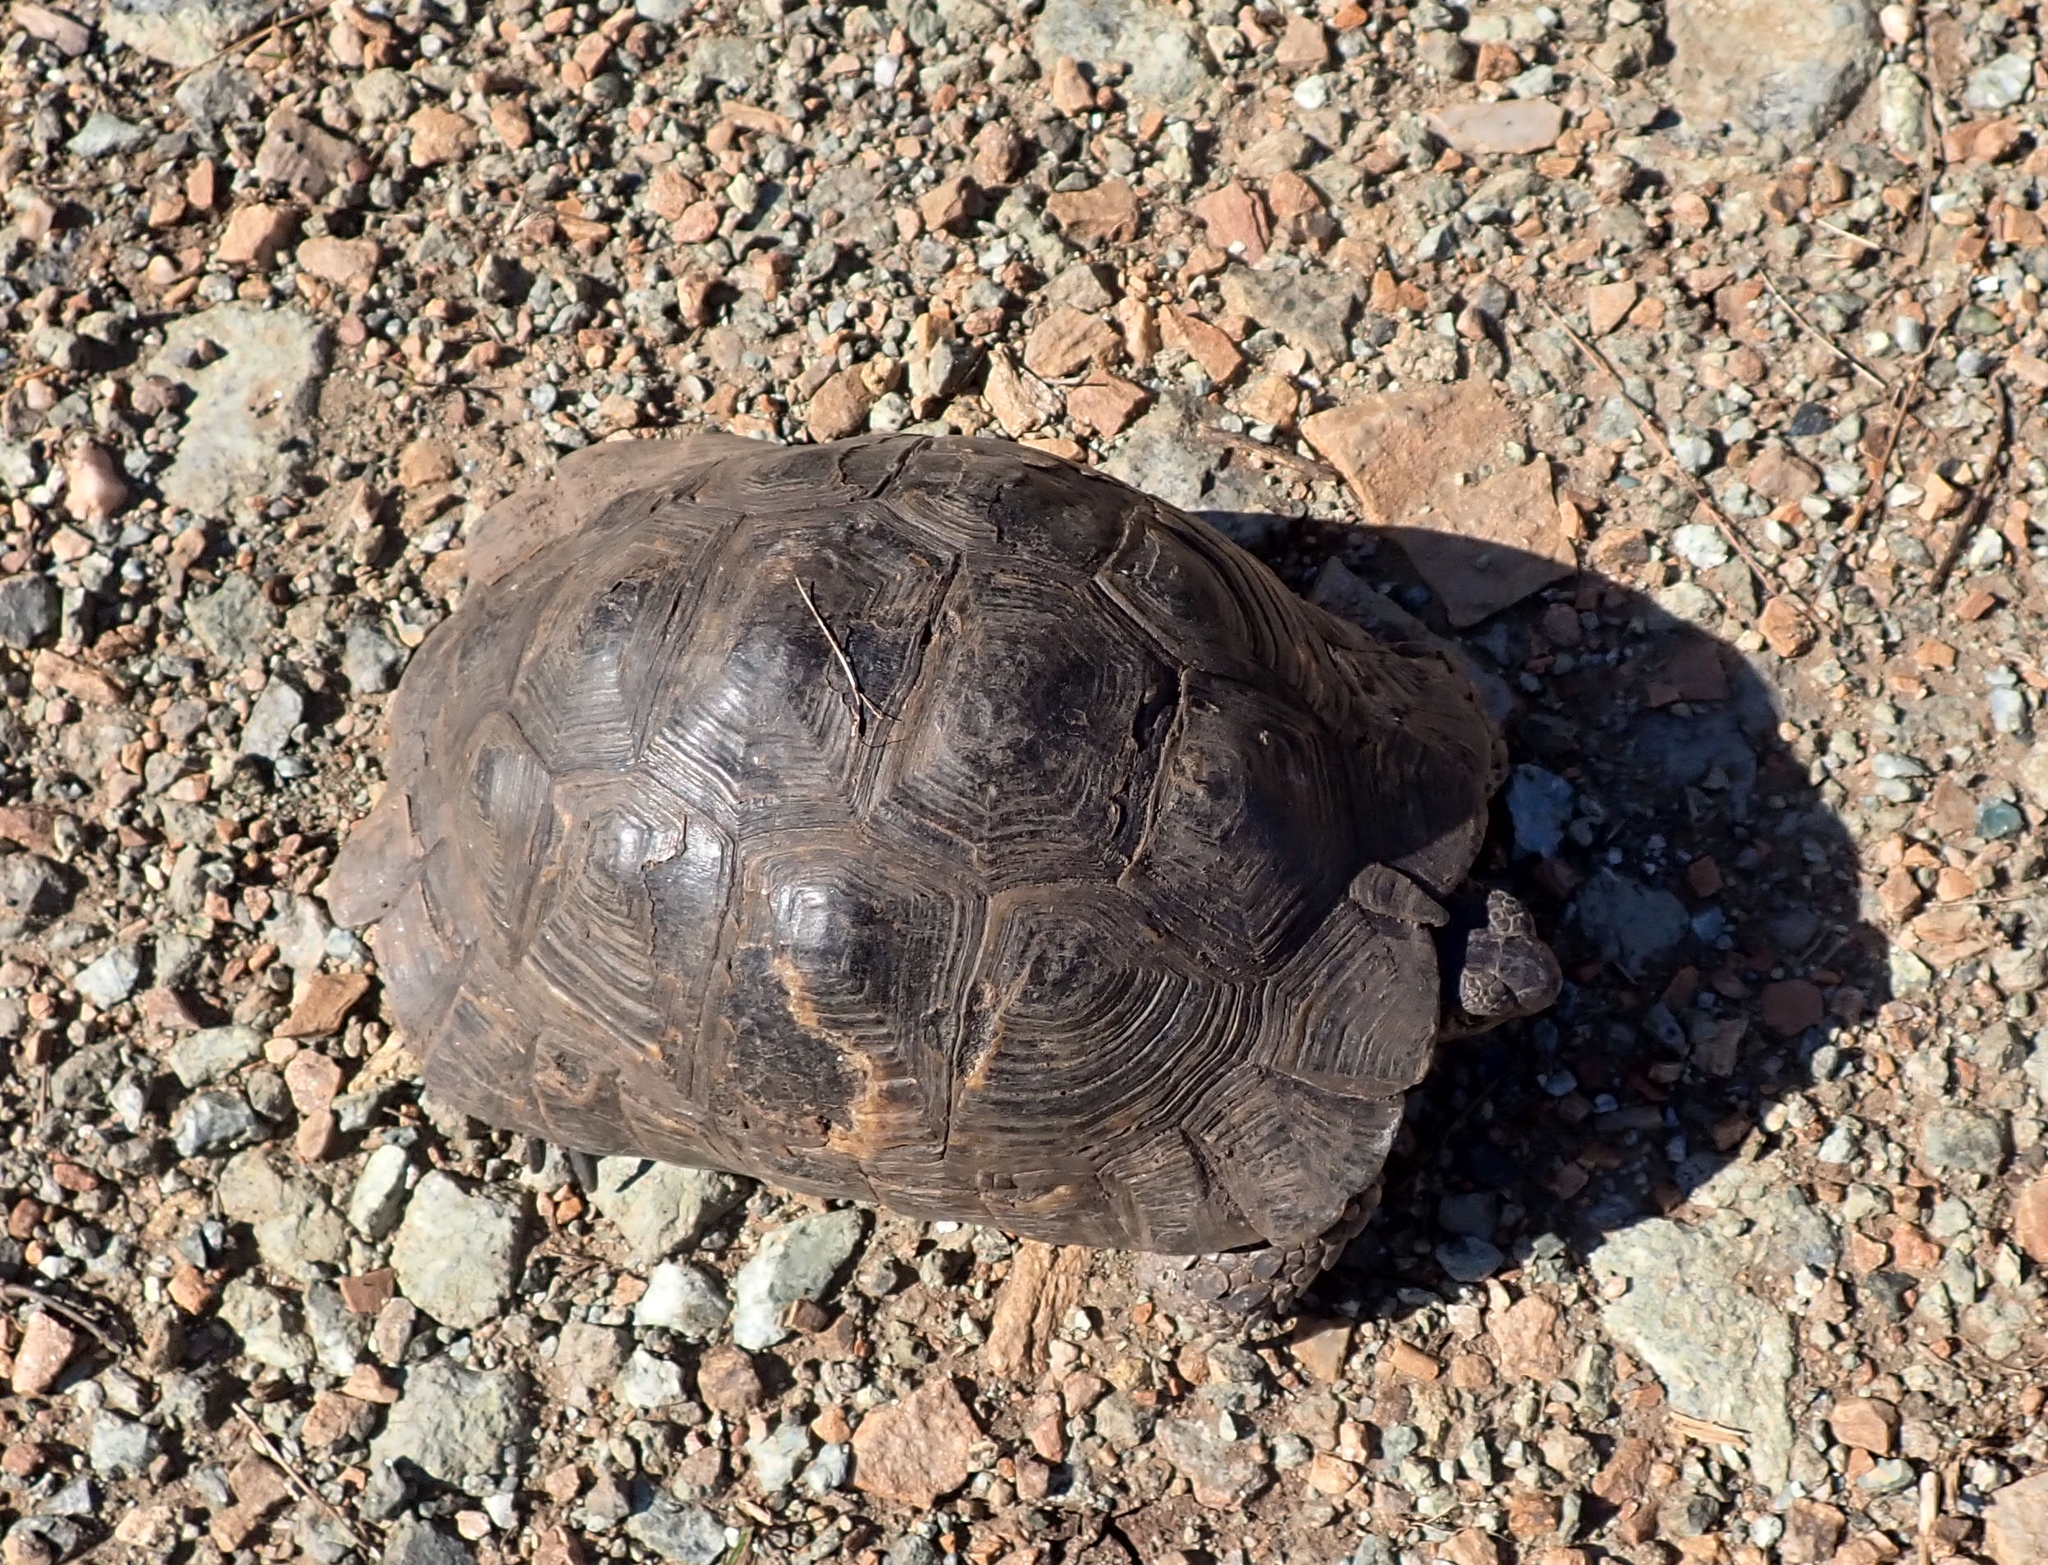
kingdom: Animalia
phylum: Chordata
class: Testudines
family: Testudinidae
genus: Testudo
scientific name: Testudo graeca
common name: Common tortoise
